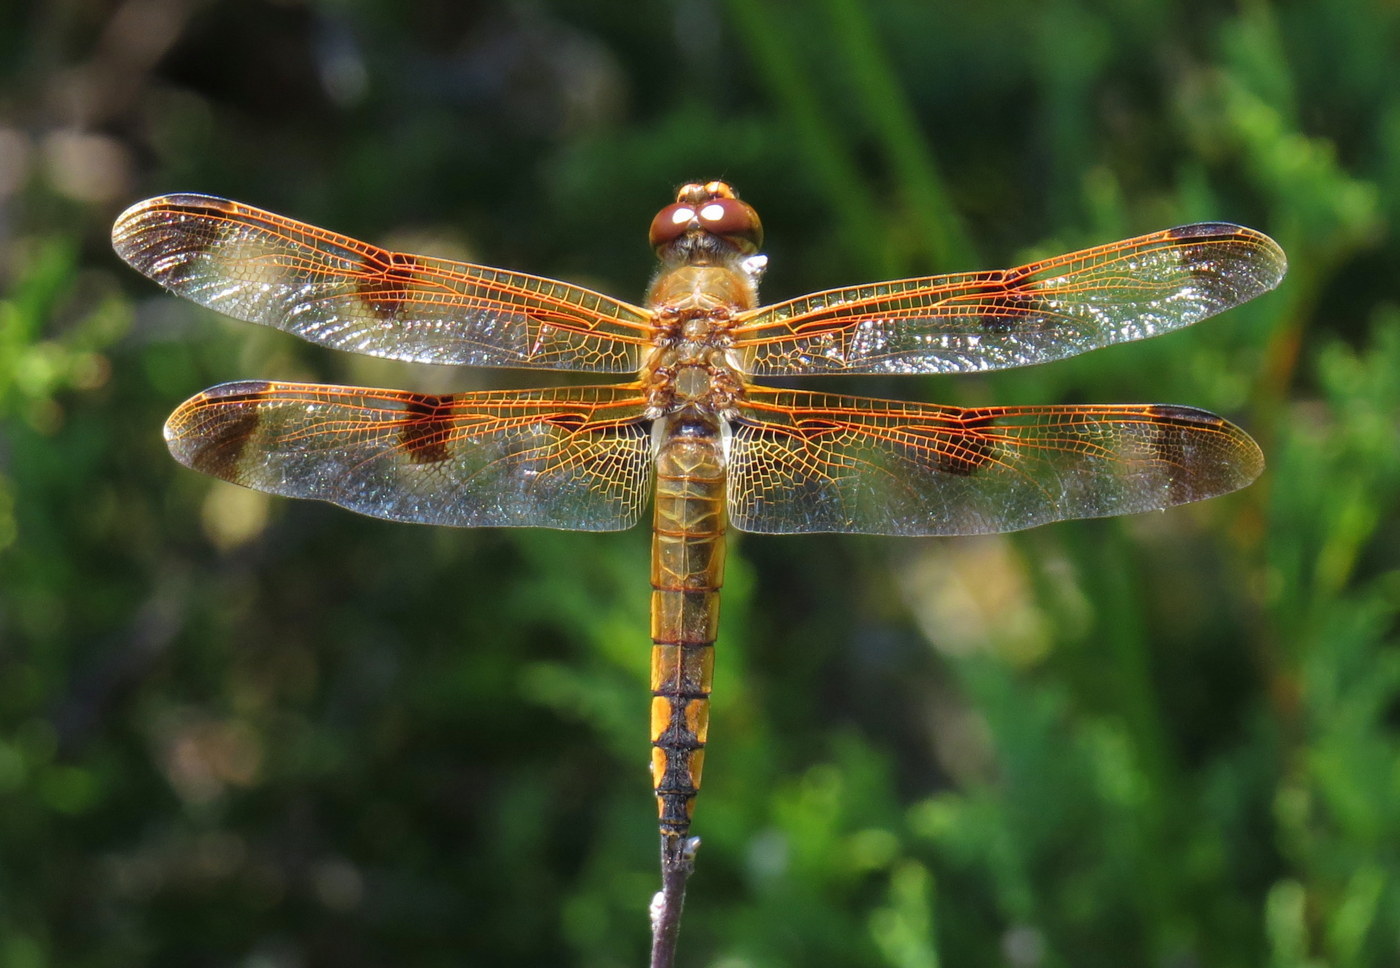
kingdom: Animalia
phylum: Arthropoda
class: Insecta
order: Odonata
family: Libellulidae
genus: Libellula
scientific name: Libellula semifasciata
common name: Painted skimmer
